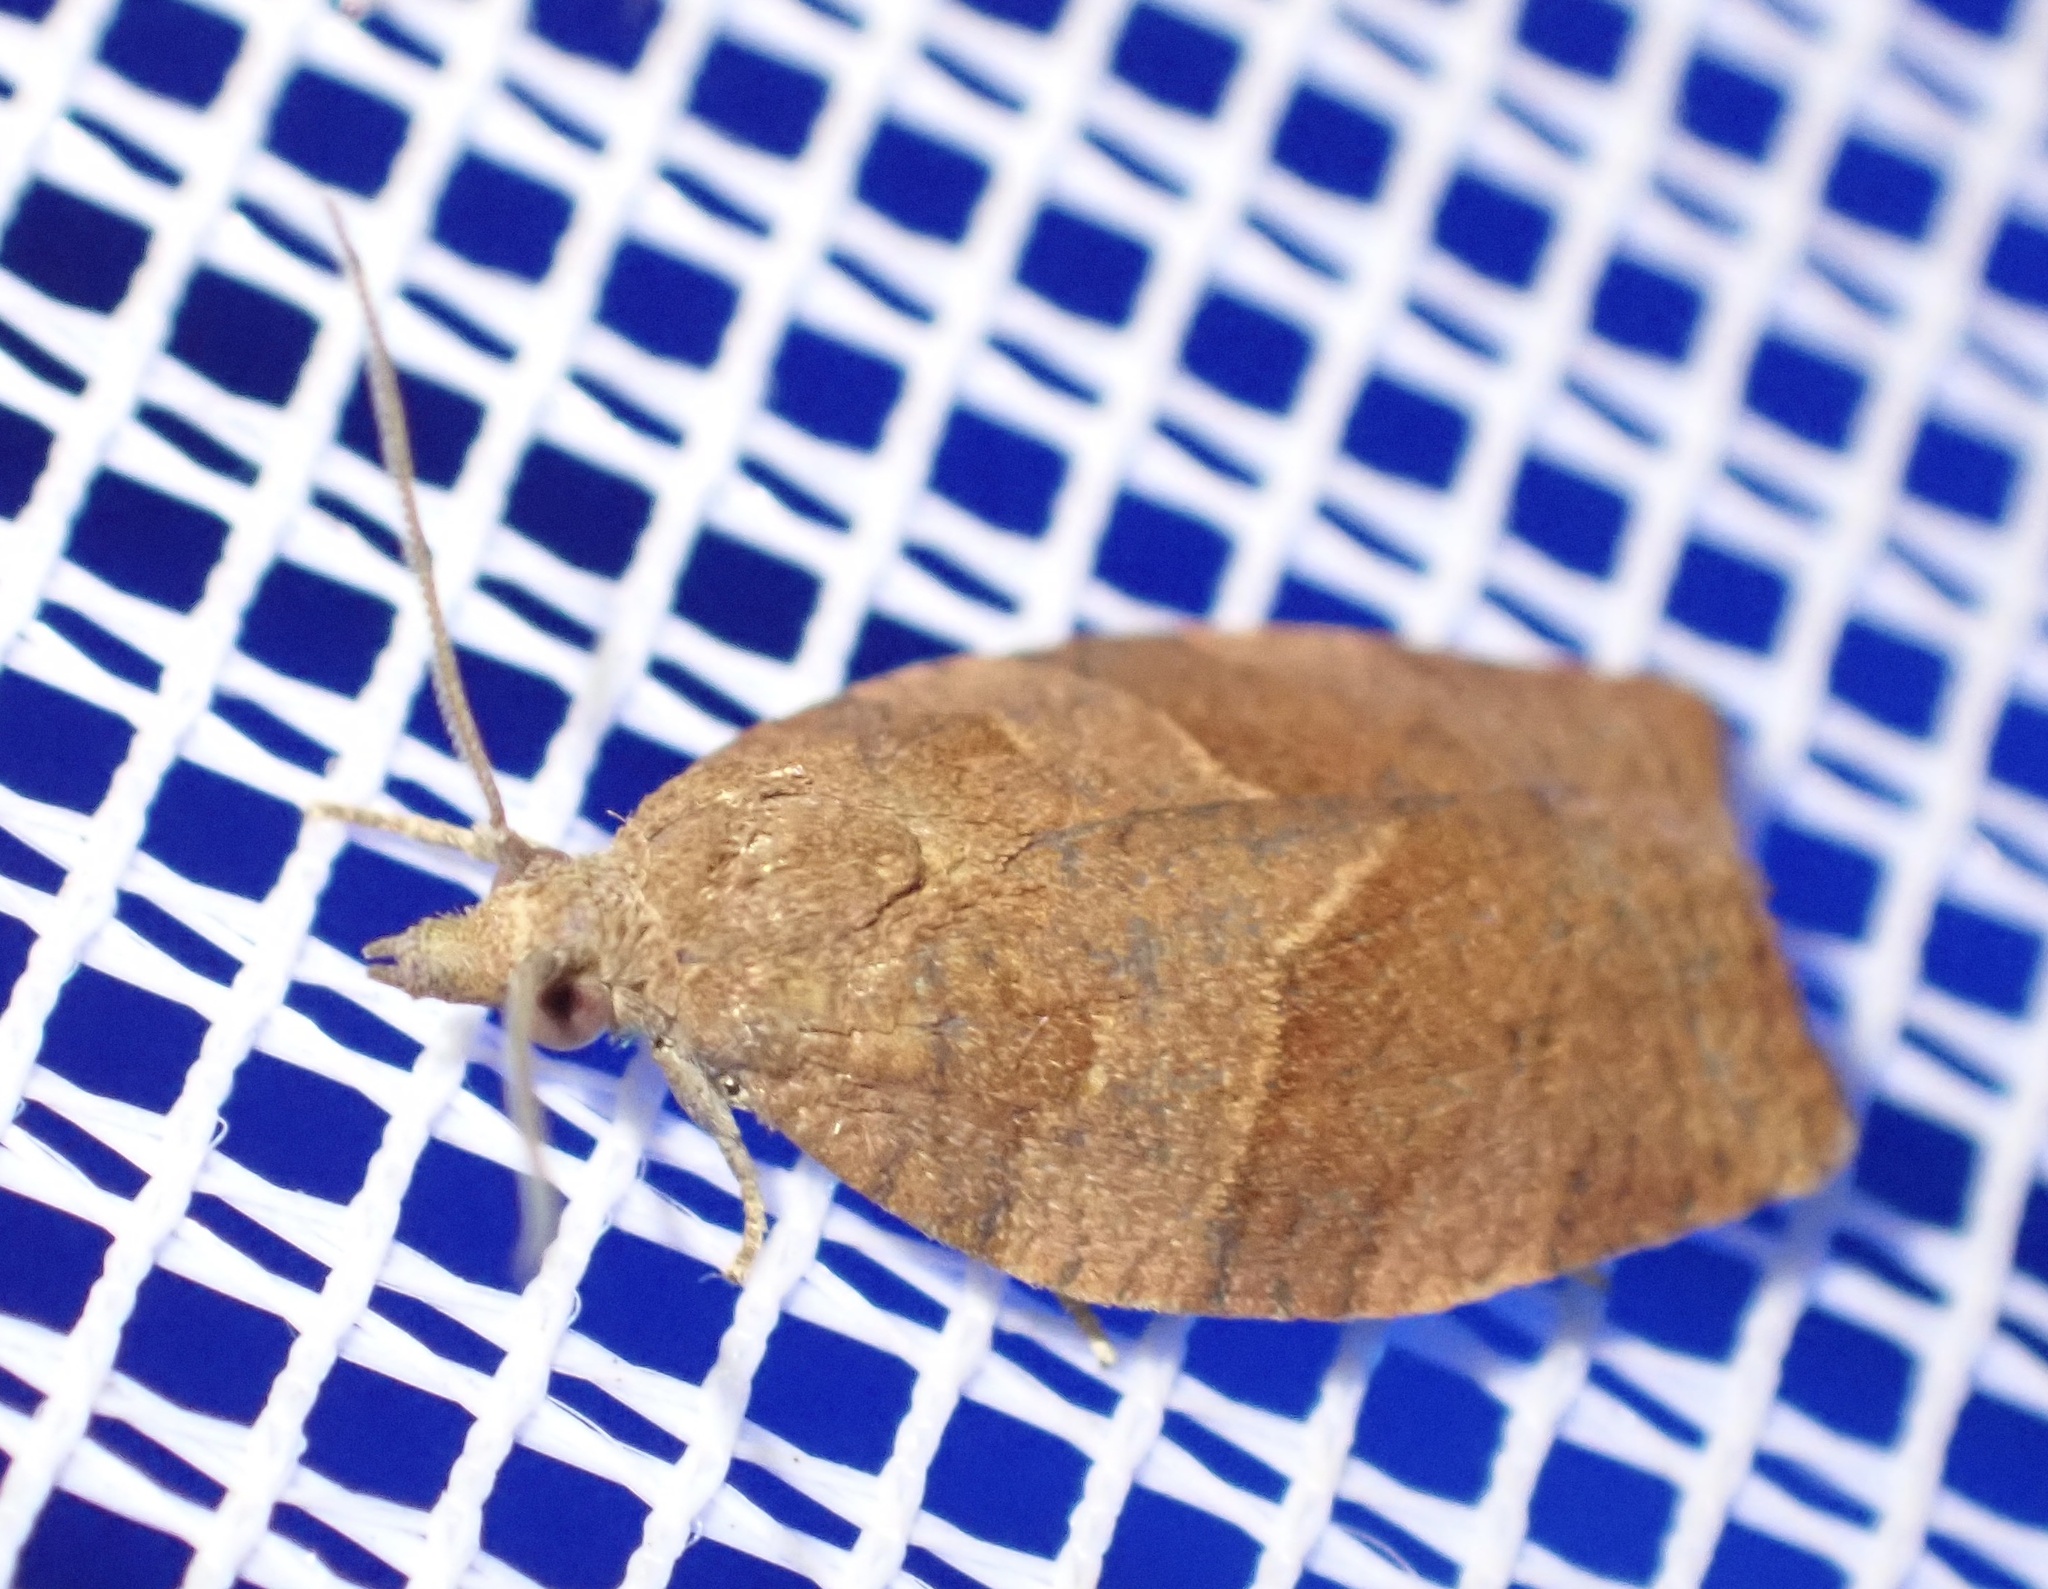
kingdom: Animalia
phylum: Arthropoda
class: Insecta
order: Lepidoptera
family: Tortricidae
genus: Pandemis
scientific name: Pandemis heparana
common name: Dark fruit-tree tortrix
